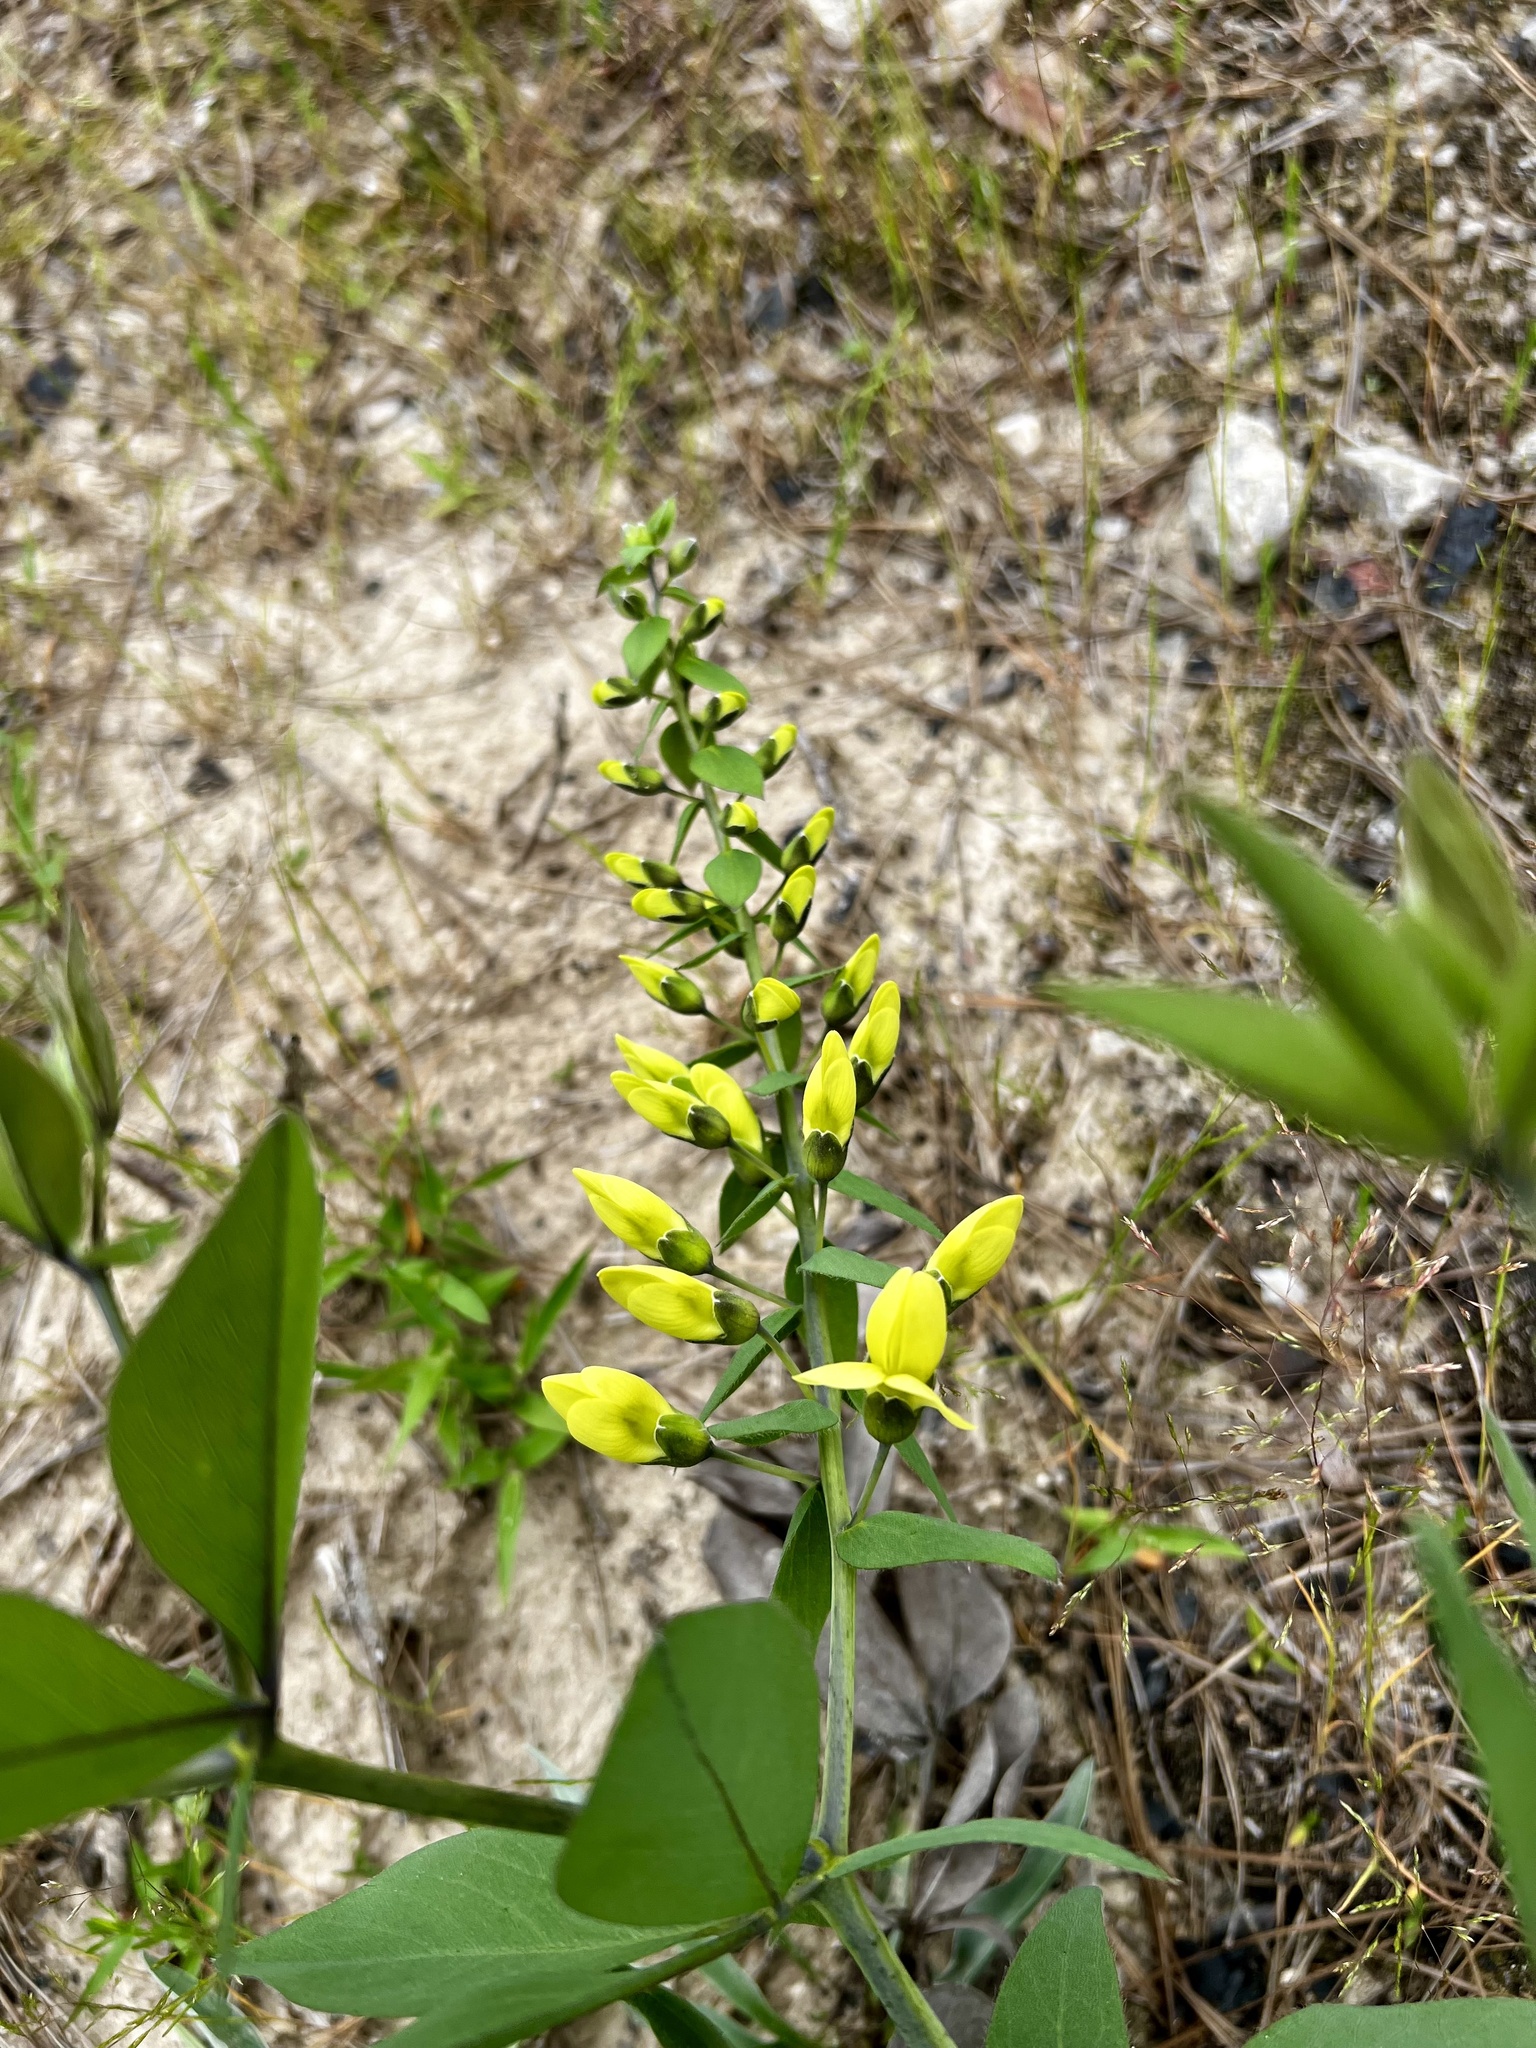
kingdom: Plantae
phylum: Tracheophyta
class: Magnoliopsida
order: Fabales
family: Fabaceae
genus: Baptisia
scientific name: Baptisia bracteata
